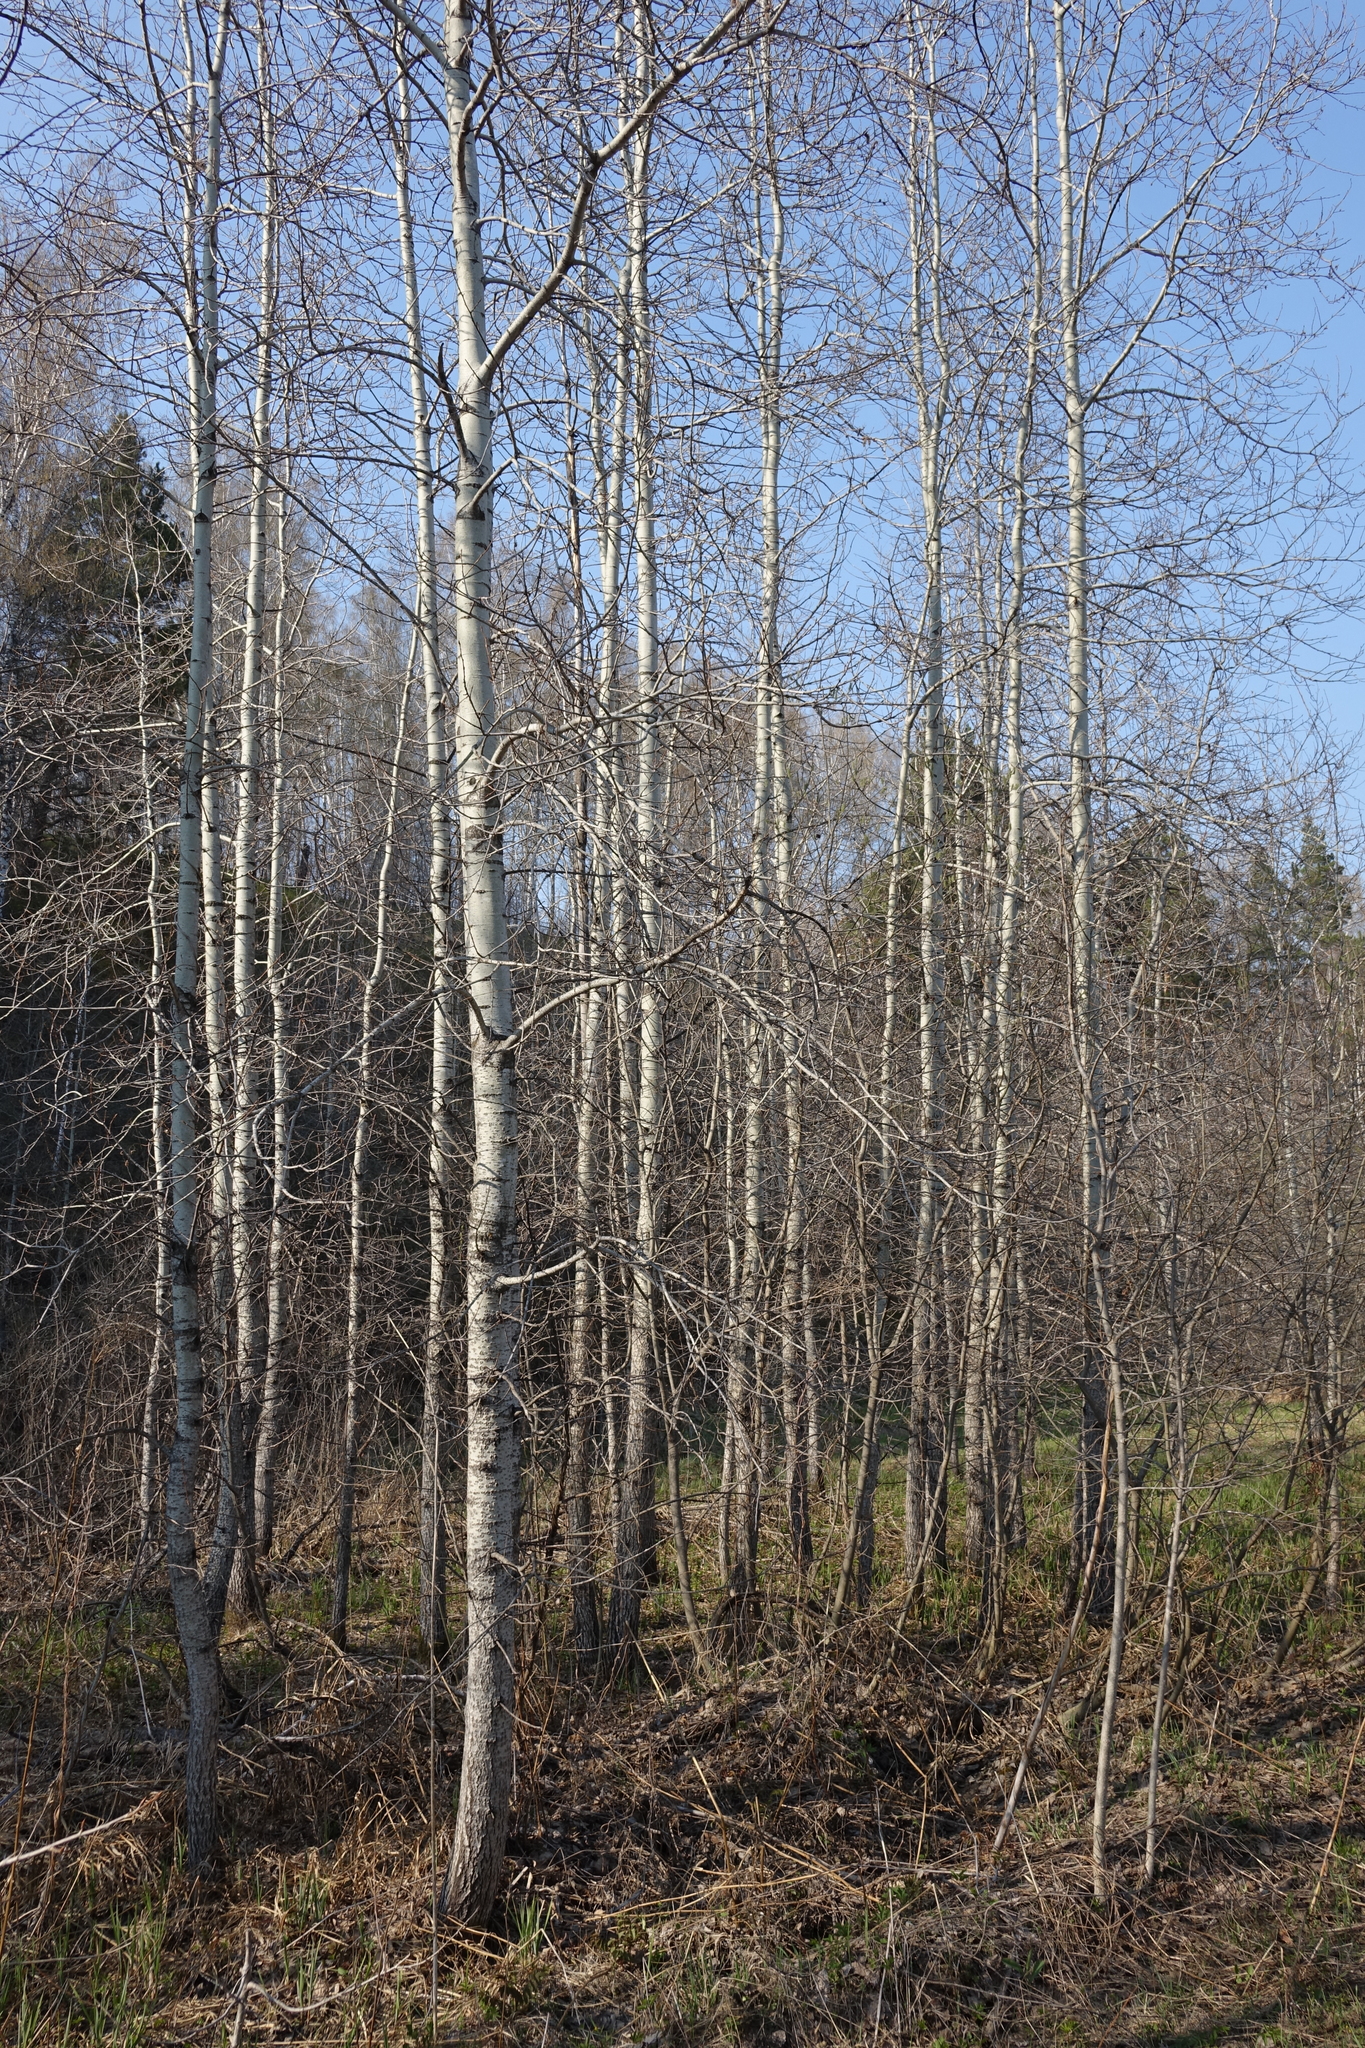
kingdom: Plantae
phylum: Tracheophyta
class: Magnoliopsida
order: Malpighiales
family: Salicaceae
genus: Populus
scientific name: Populus tremula
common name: European aspen
